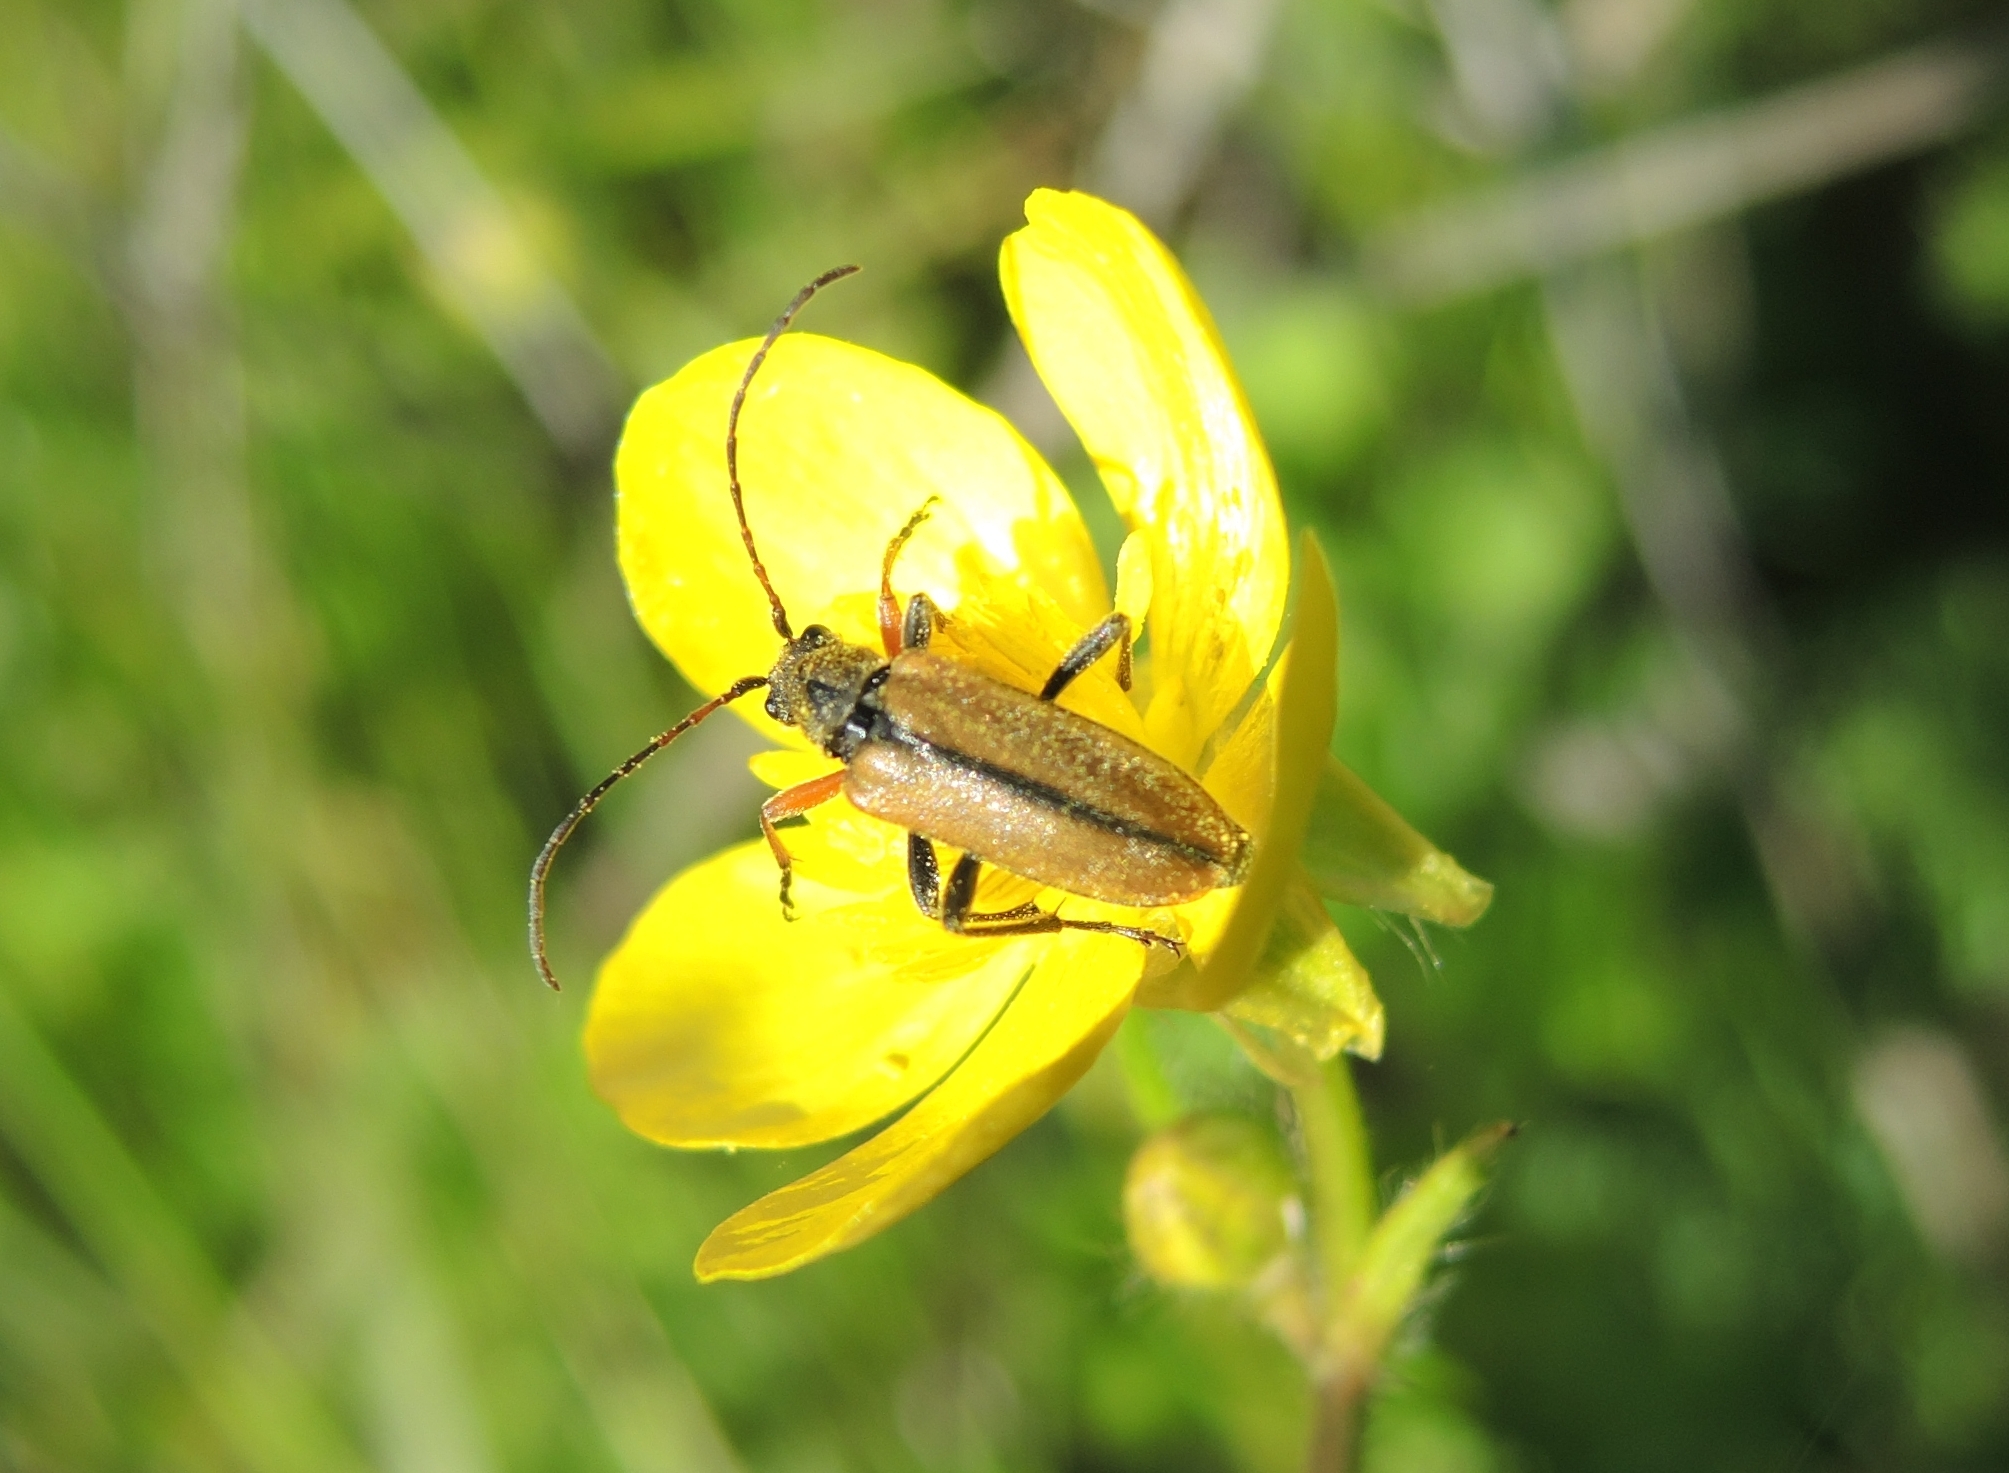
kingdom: Animalia
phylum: Arthropoda
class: Insecta
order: Coleoptera
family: Cerambycidae
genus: Cortodera
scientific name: Cortodera flavimana
